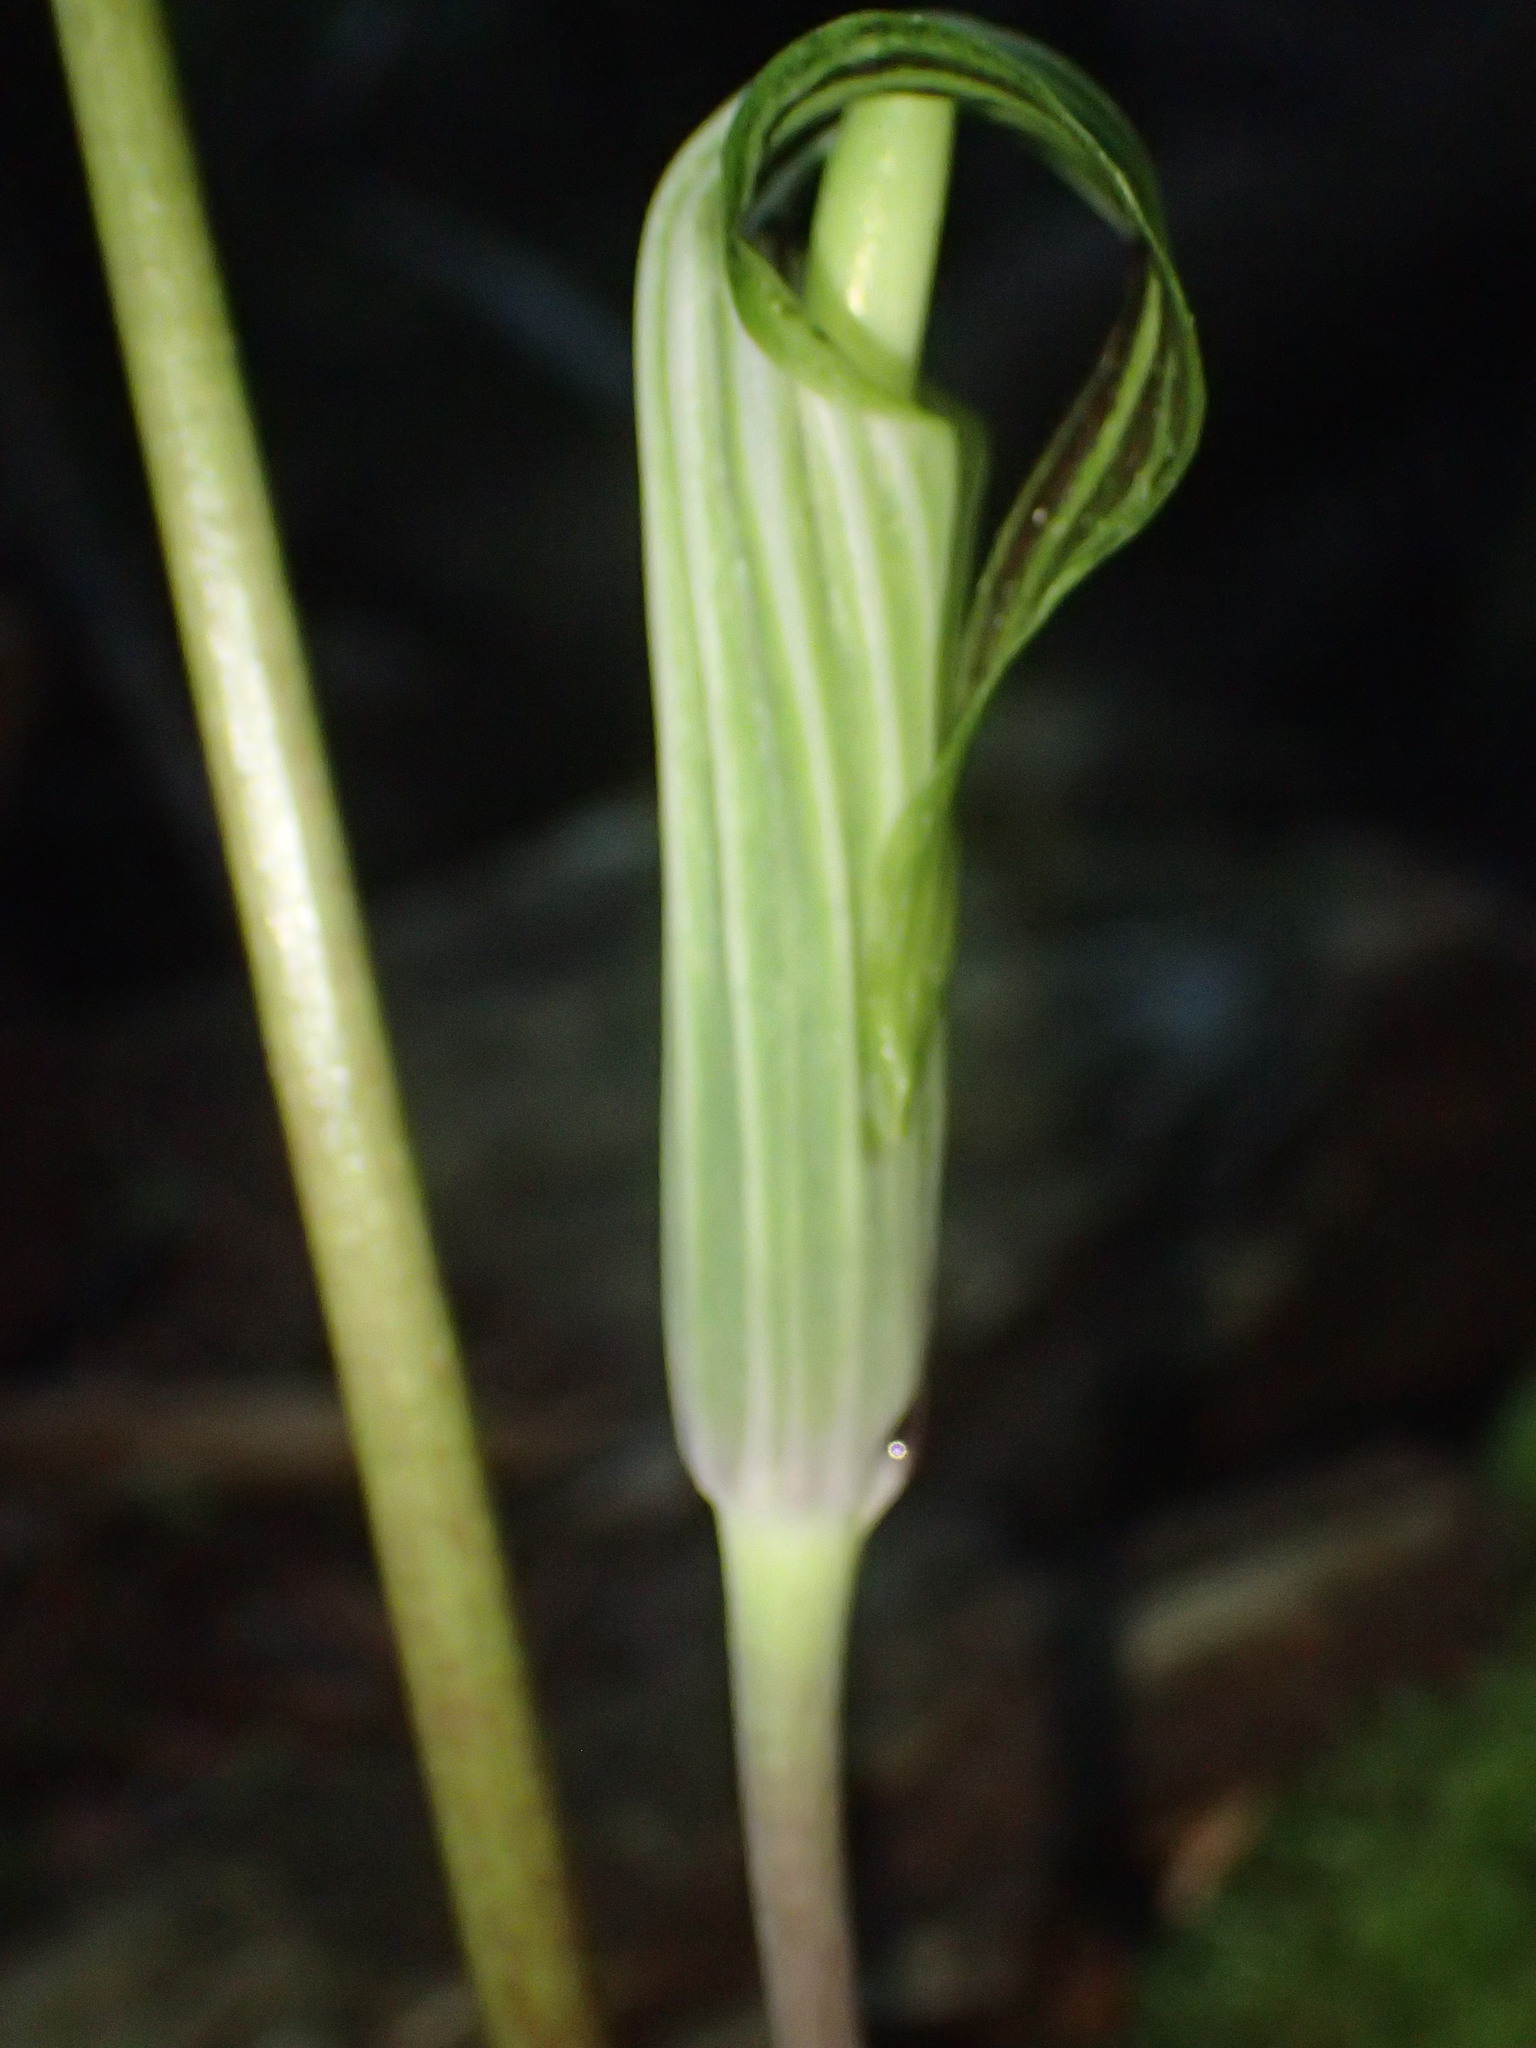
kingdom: Plantae
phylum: Tracheophyta
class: Liliopsida
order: Alismatales
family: Araceae
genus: Arisaema
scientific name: Arisaema stewardsonii
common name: Swamp jack-in-the-pulpit
